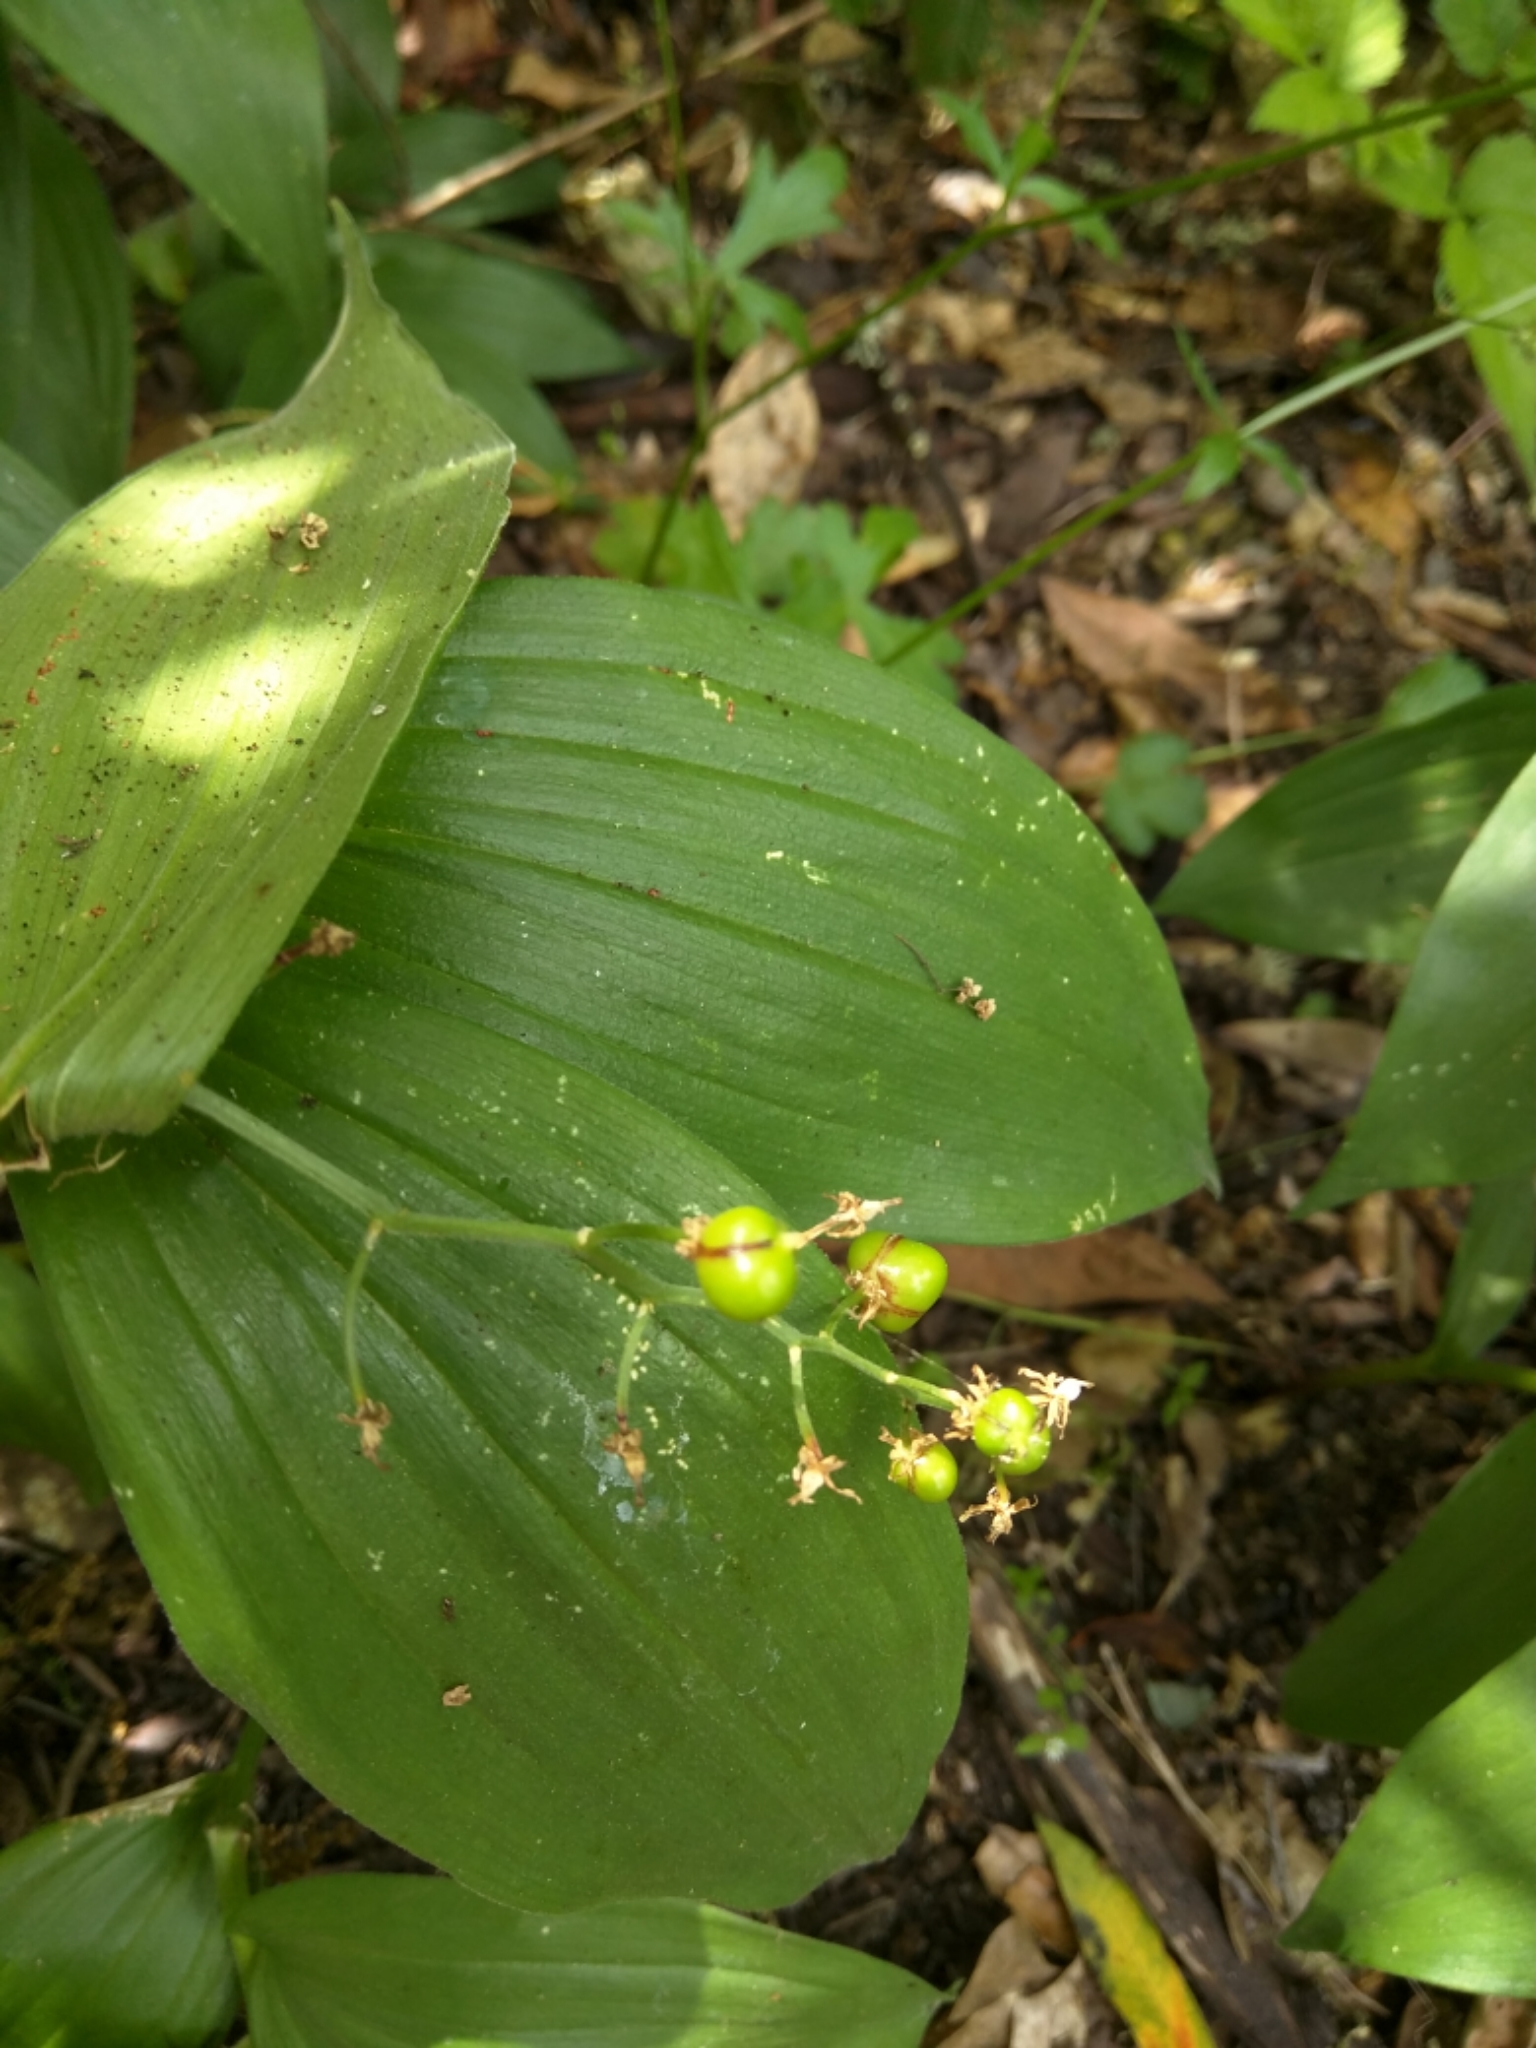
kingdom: Plantae
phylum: Tracheophyta
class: Liliopsida
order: Asparagales
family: Asparagaceae
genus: Maianthemum
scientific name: Maianthemum stellatum
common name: Little false solomon's seal
